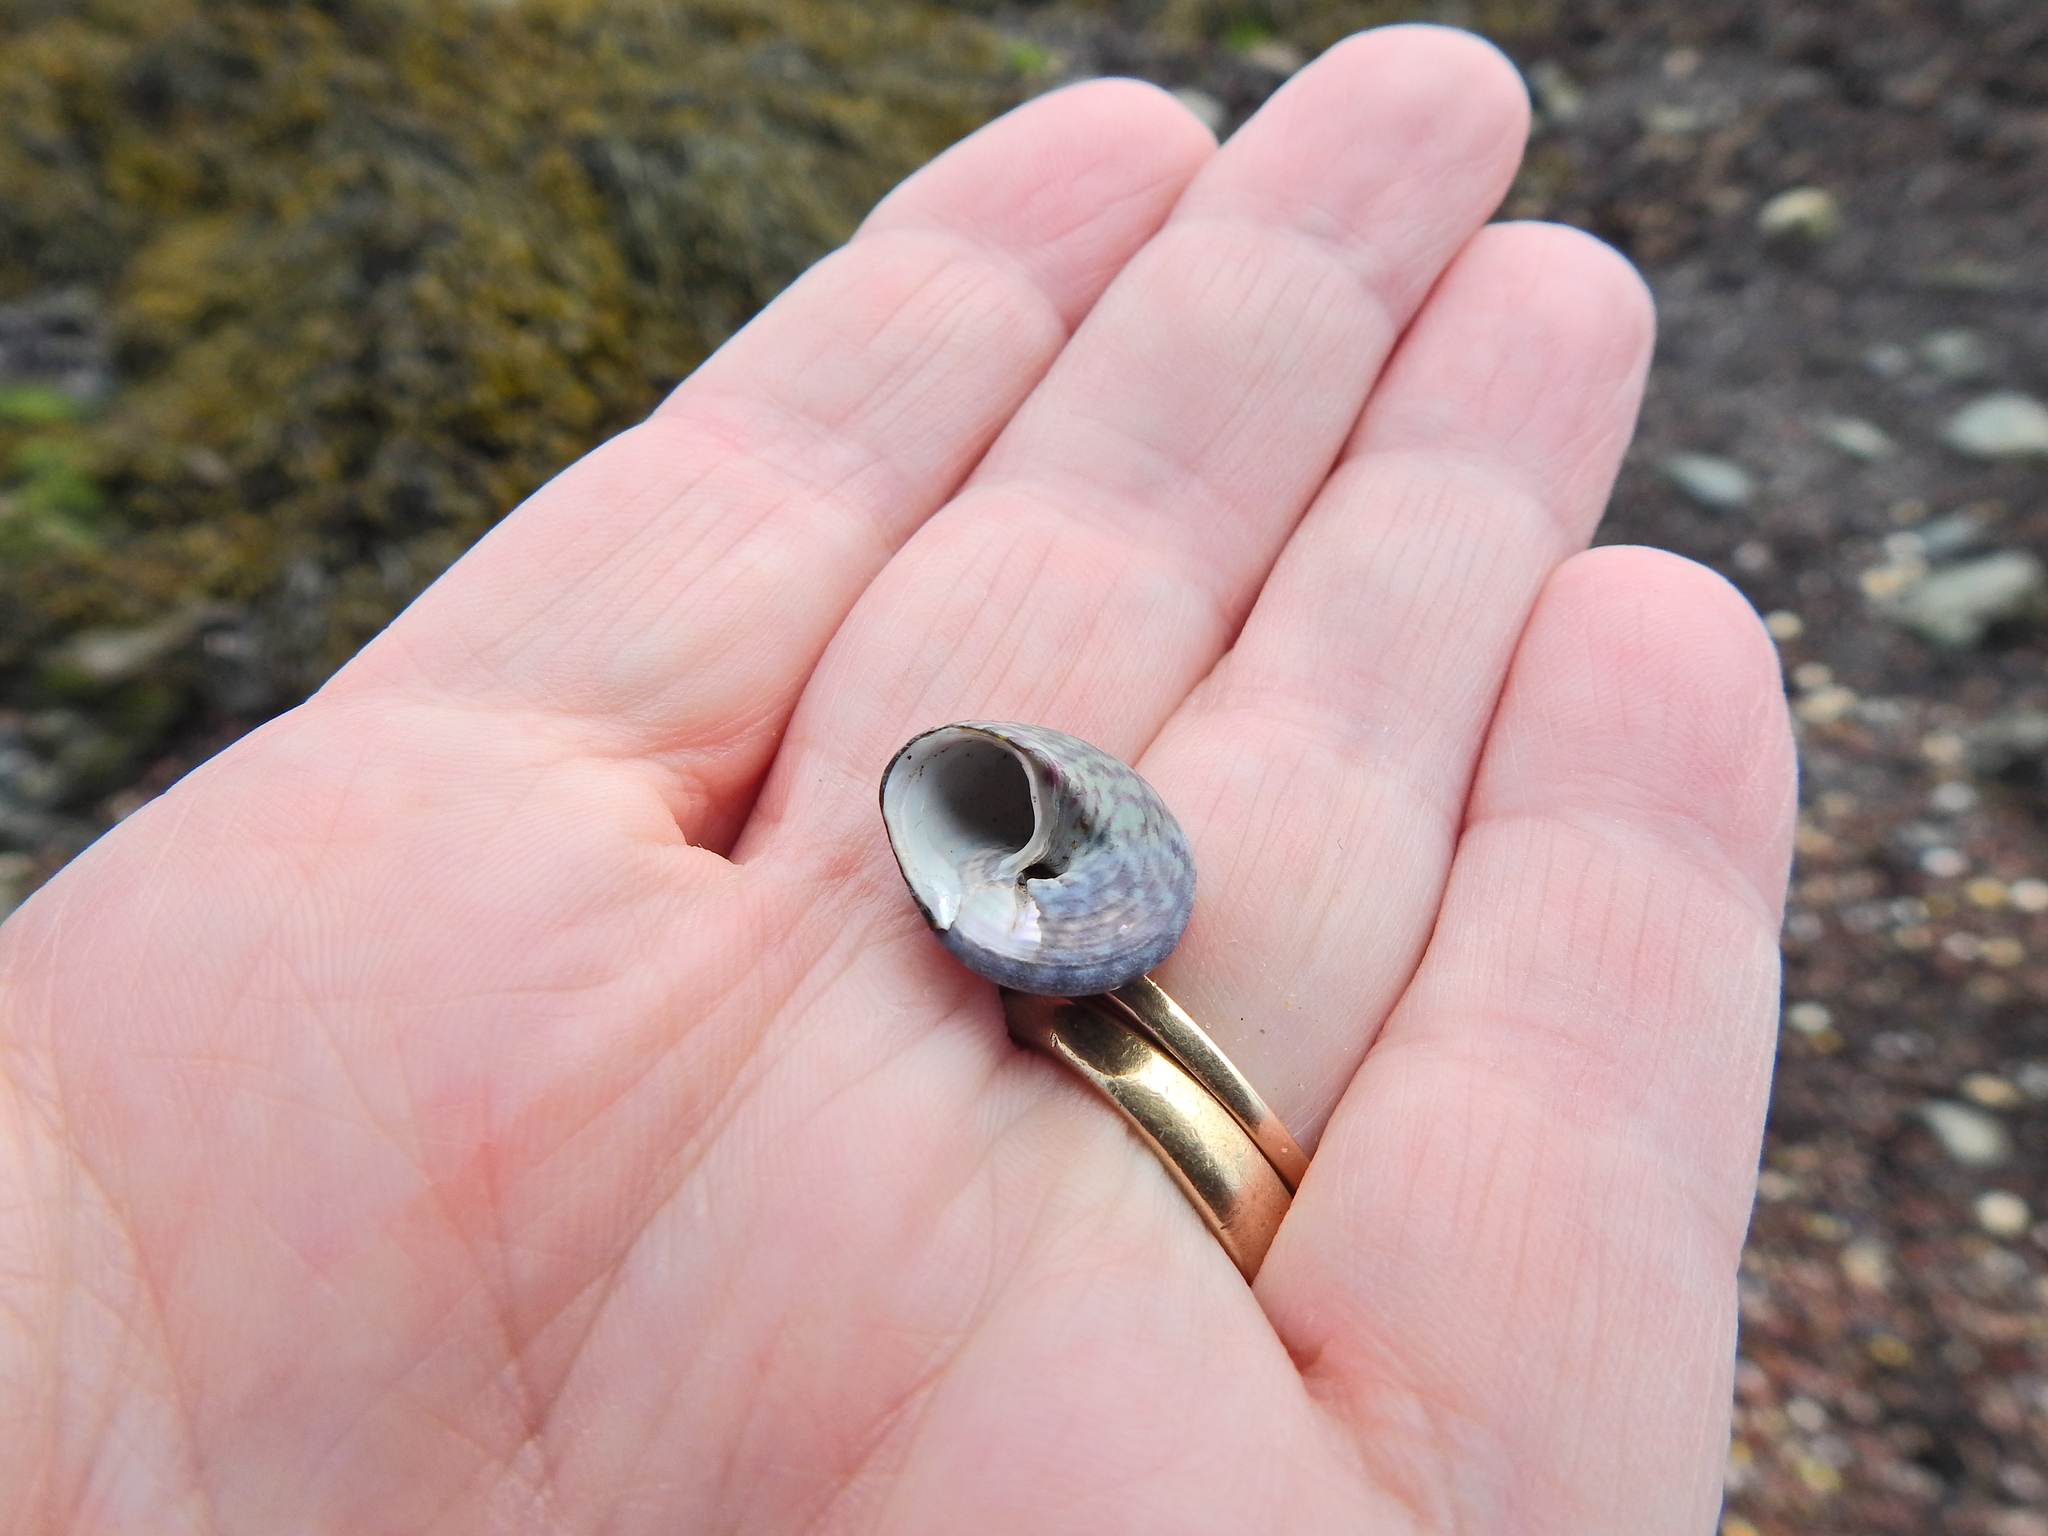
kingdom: Animalia
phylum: Mollusca
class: Gastropoda
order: Trochida
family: Trochidae
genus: Steromphala
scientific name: Steromphala umbilicalis
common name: Flat top shell
